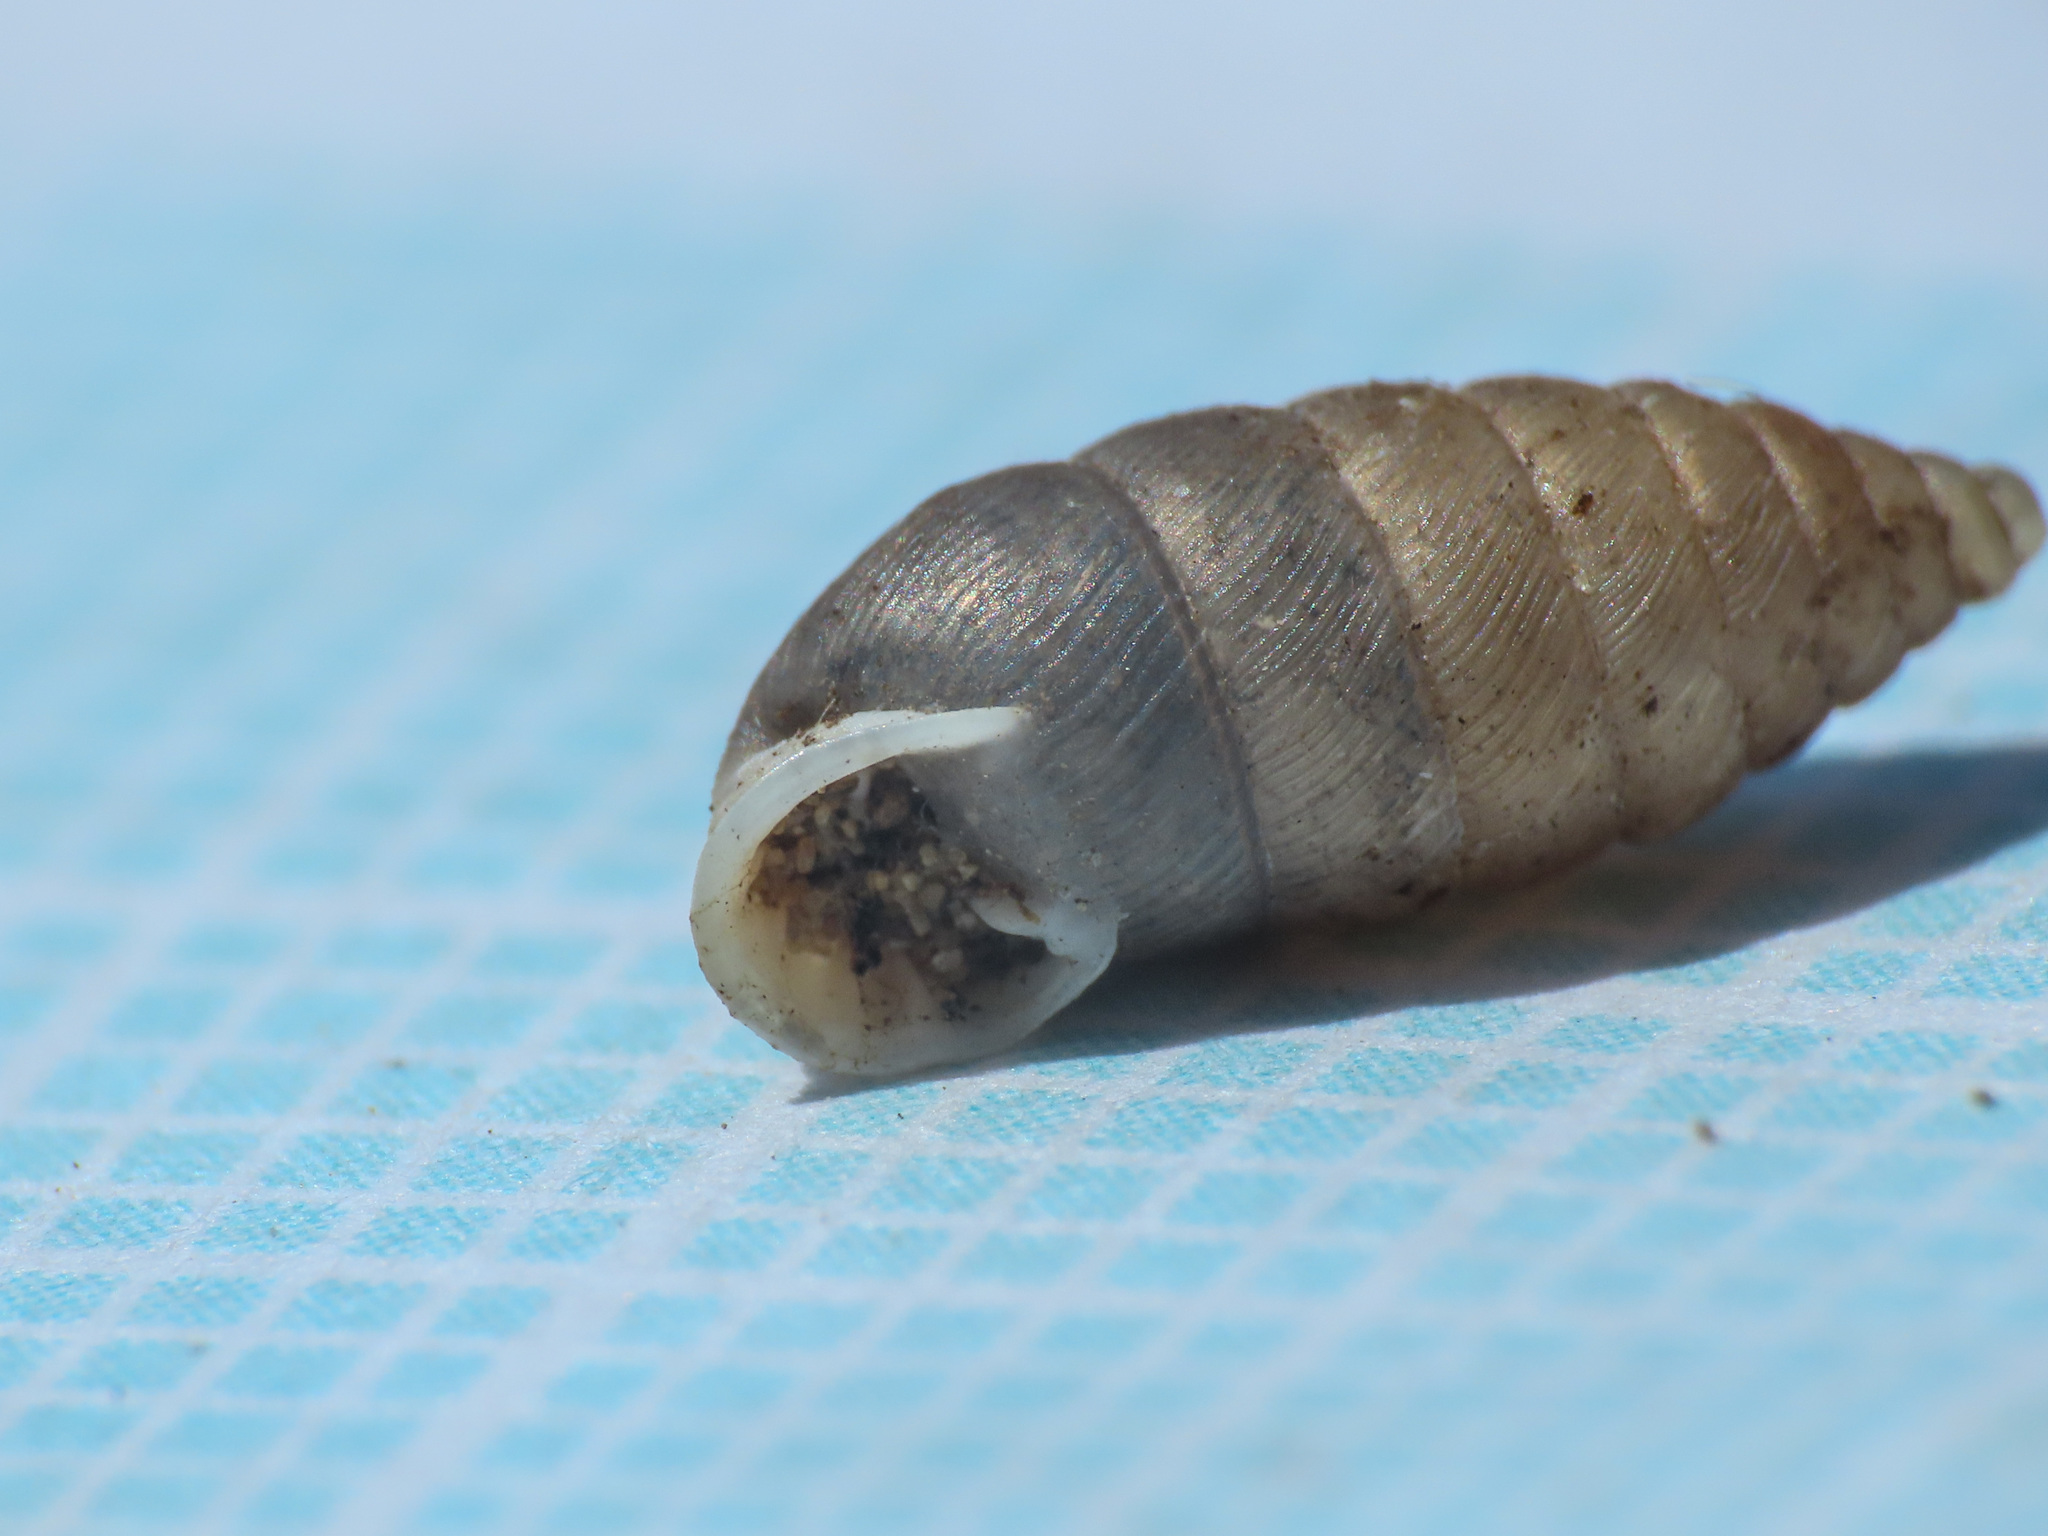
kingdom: Animalia
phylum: Mollusca
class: Gastropoda
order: Stylommatophora
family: Chondrinidae
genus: Granaria
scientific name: Granaria frumentum
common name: An air-breathing land snail
